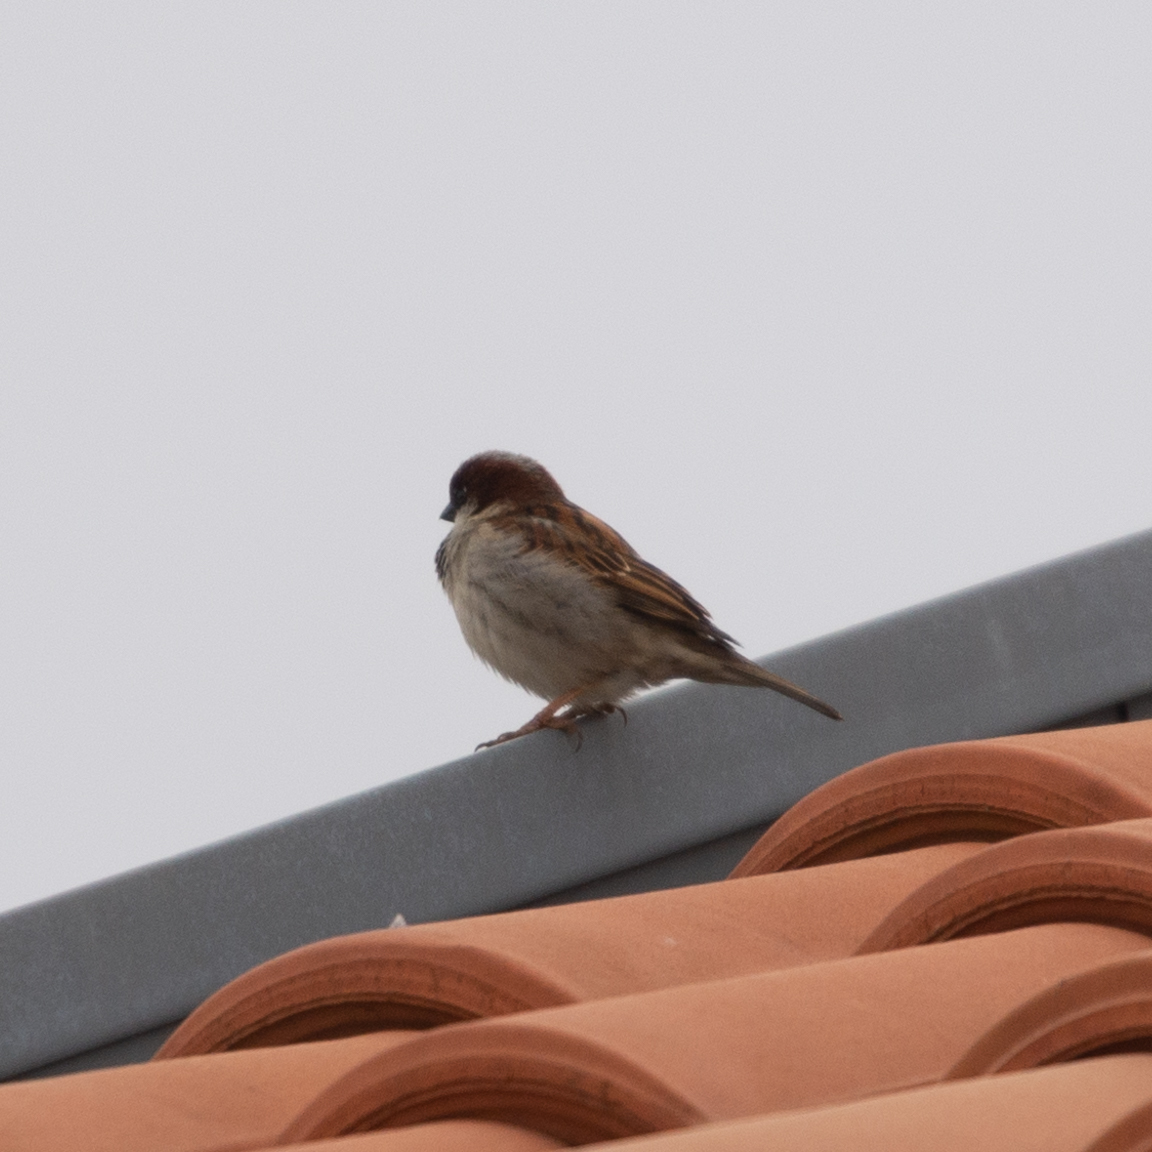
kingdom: Animalia
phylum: Chordata
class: Aves
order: Passeriformes
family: Passeridae
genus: Passer
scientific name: Passer domesticus
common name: House sparrow
